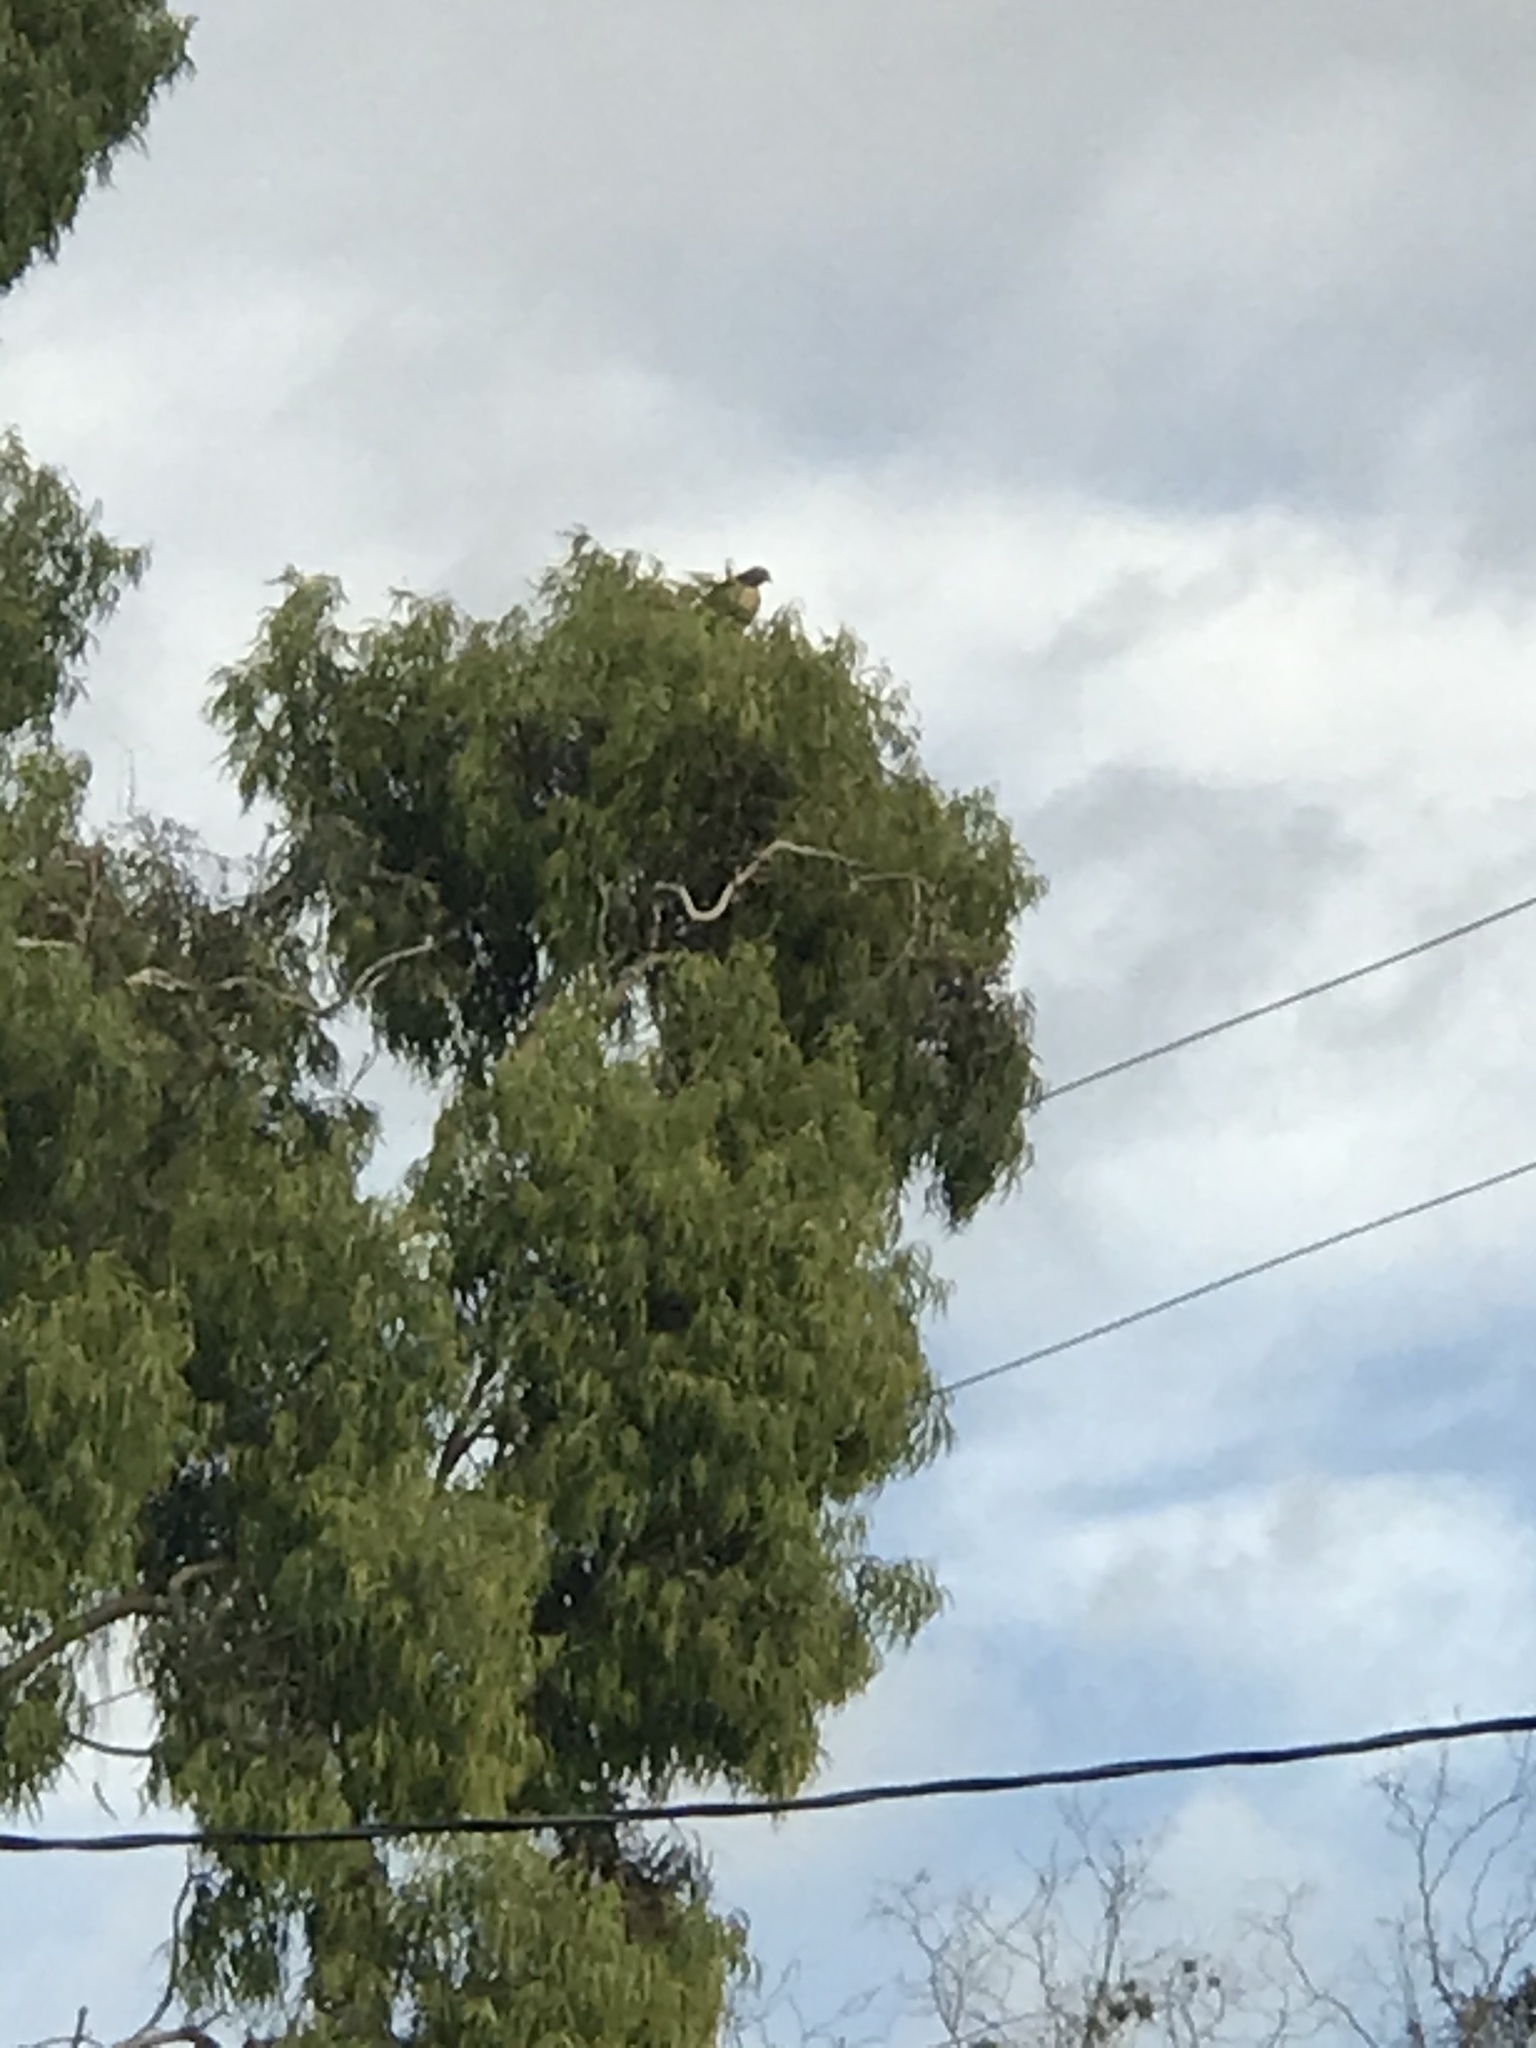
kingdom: Animalia
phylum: Chordata
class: Aves
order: Accipitriformes
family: Accipitridae
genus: Buteo
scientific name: Buteo jamaicensis
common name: Red-tailed hawk
